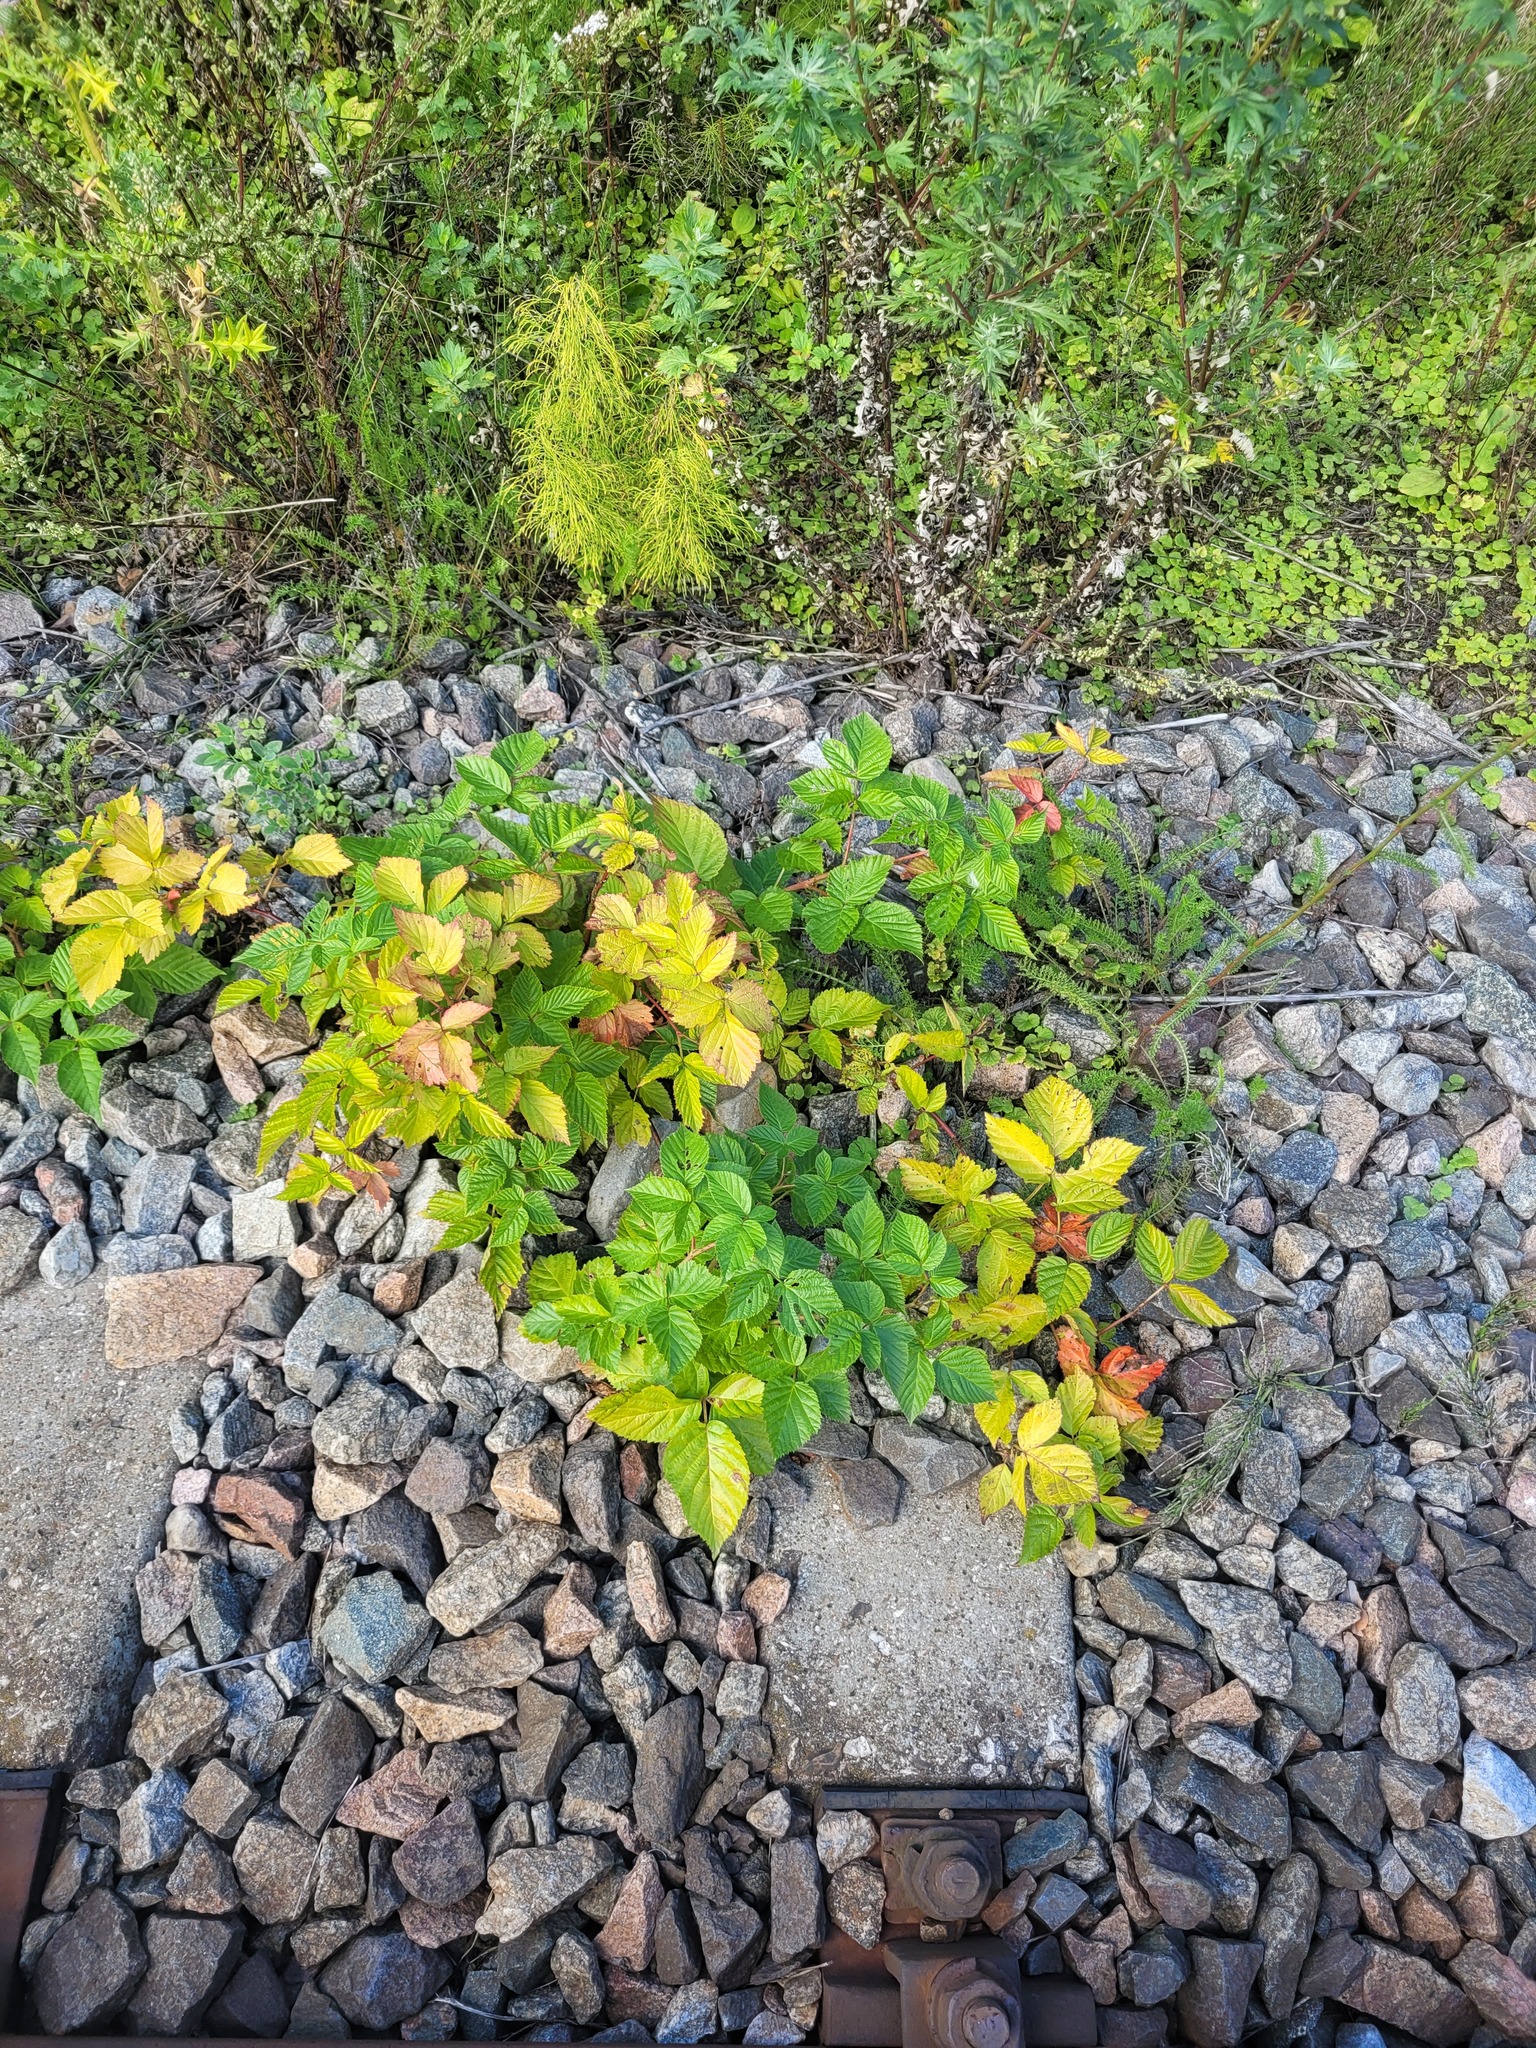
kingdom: Plantae
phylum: Tracheophyta
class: Magnoliopsida
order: Rosales
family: Rosaceae
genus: Rubus
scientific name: Rubus polonicus
